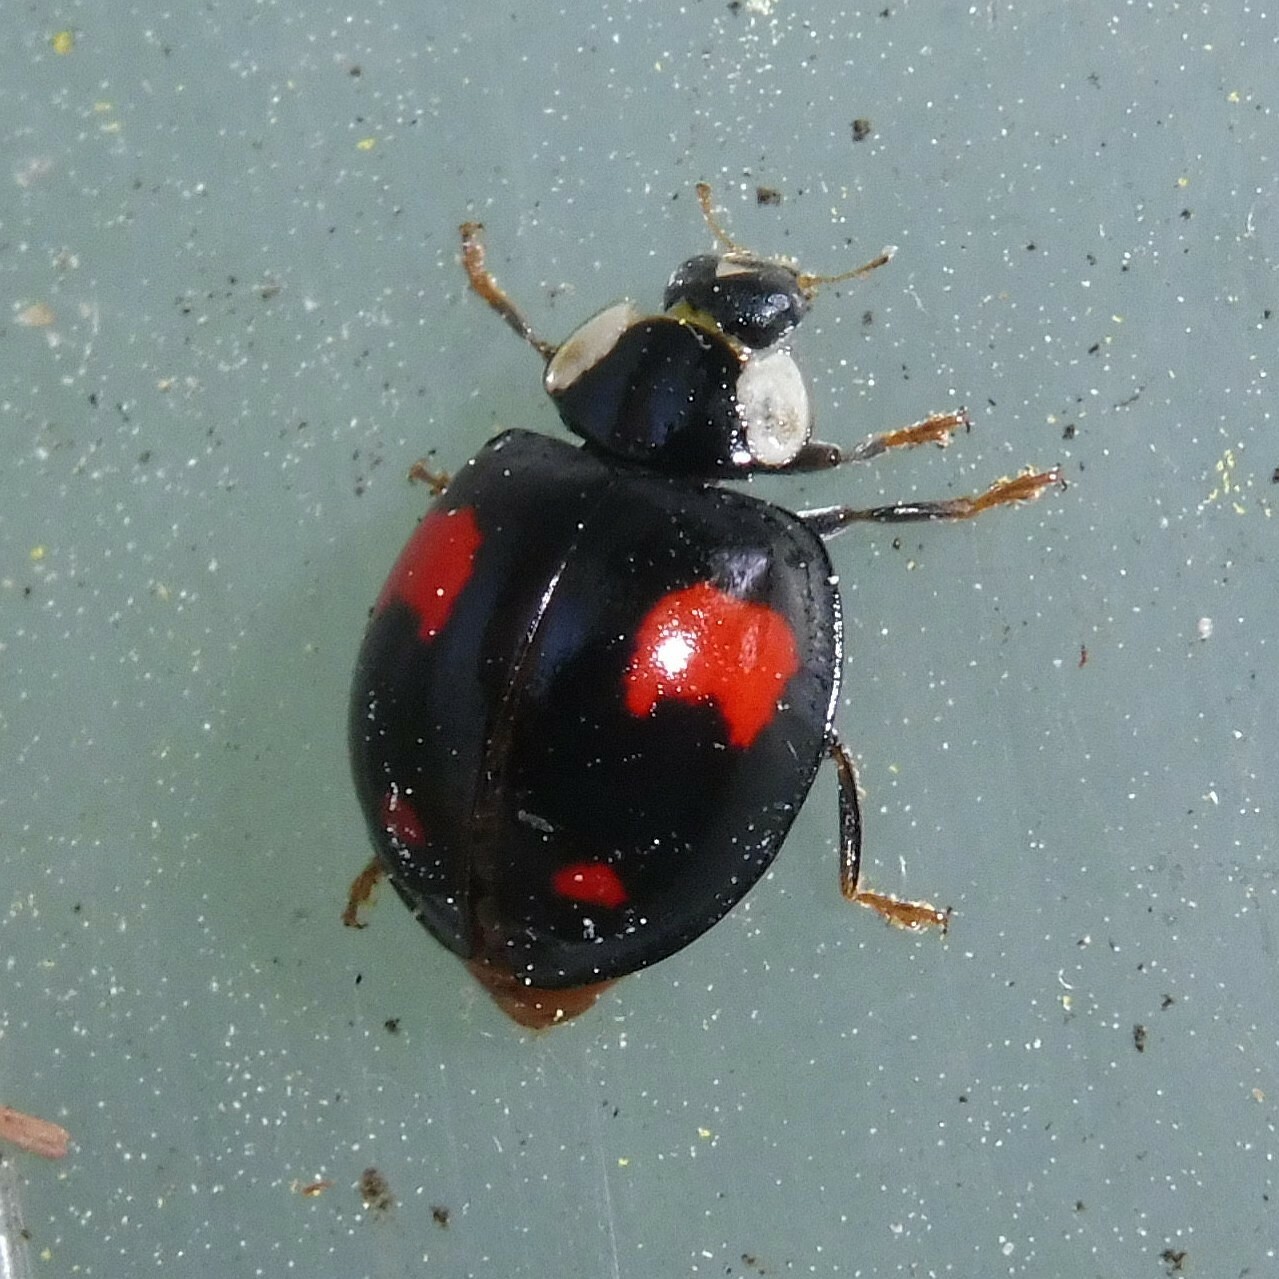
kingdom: Animalia
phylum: Arthropoda
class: Insecta
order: Coleoptera
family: Coccinellidae
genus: Harmonia
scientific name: Harmonia axyridis
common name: Harlequin ladybird
